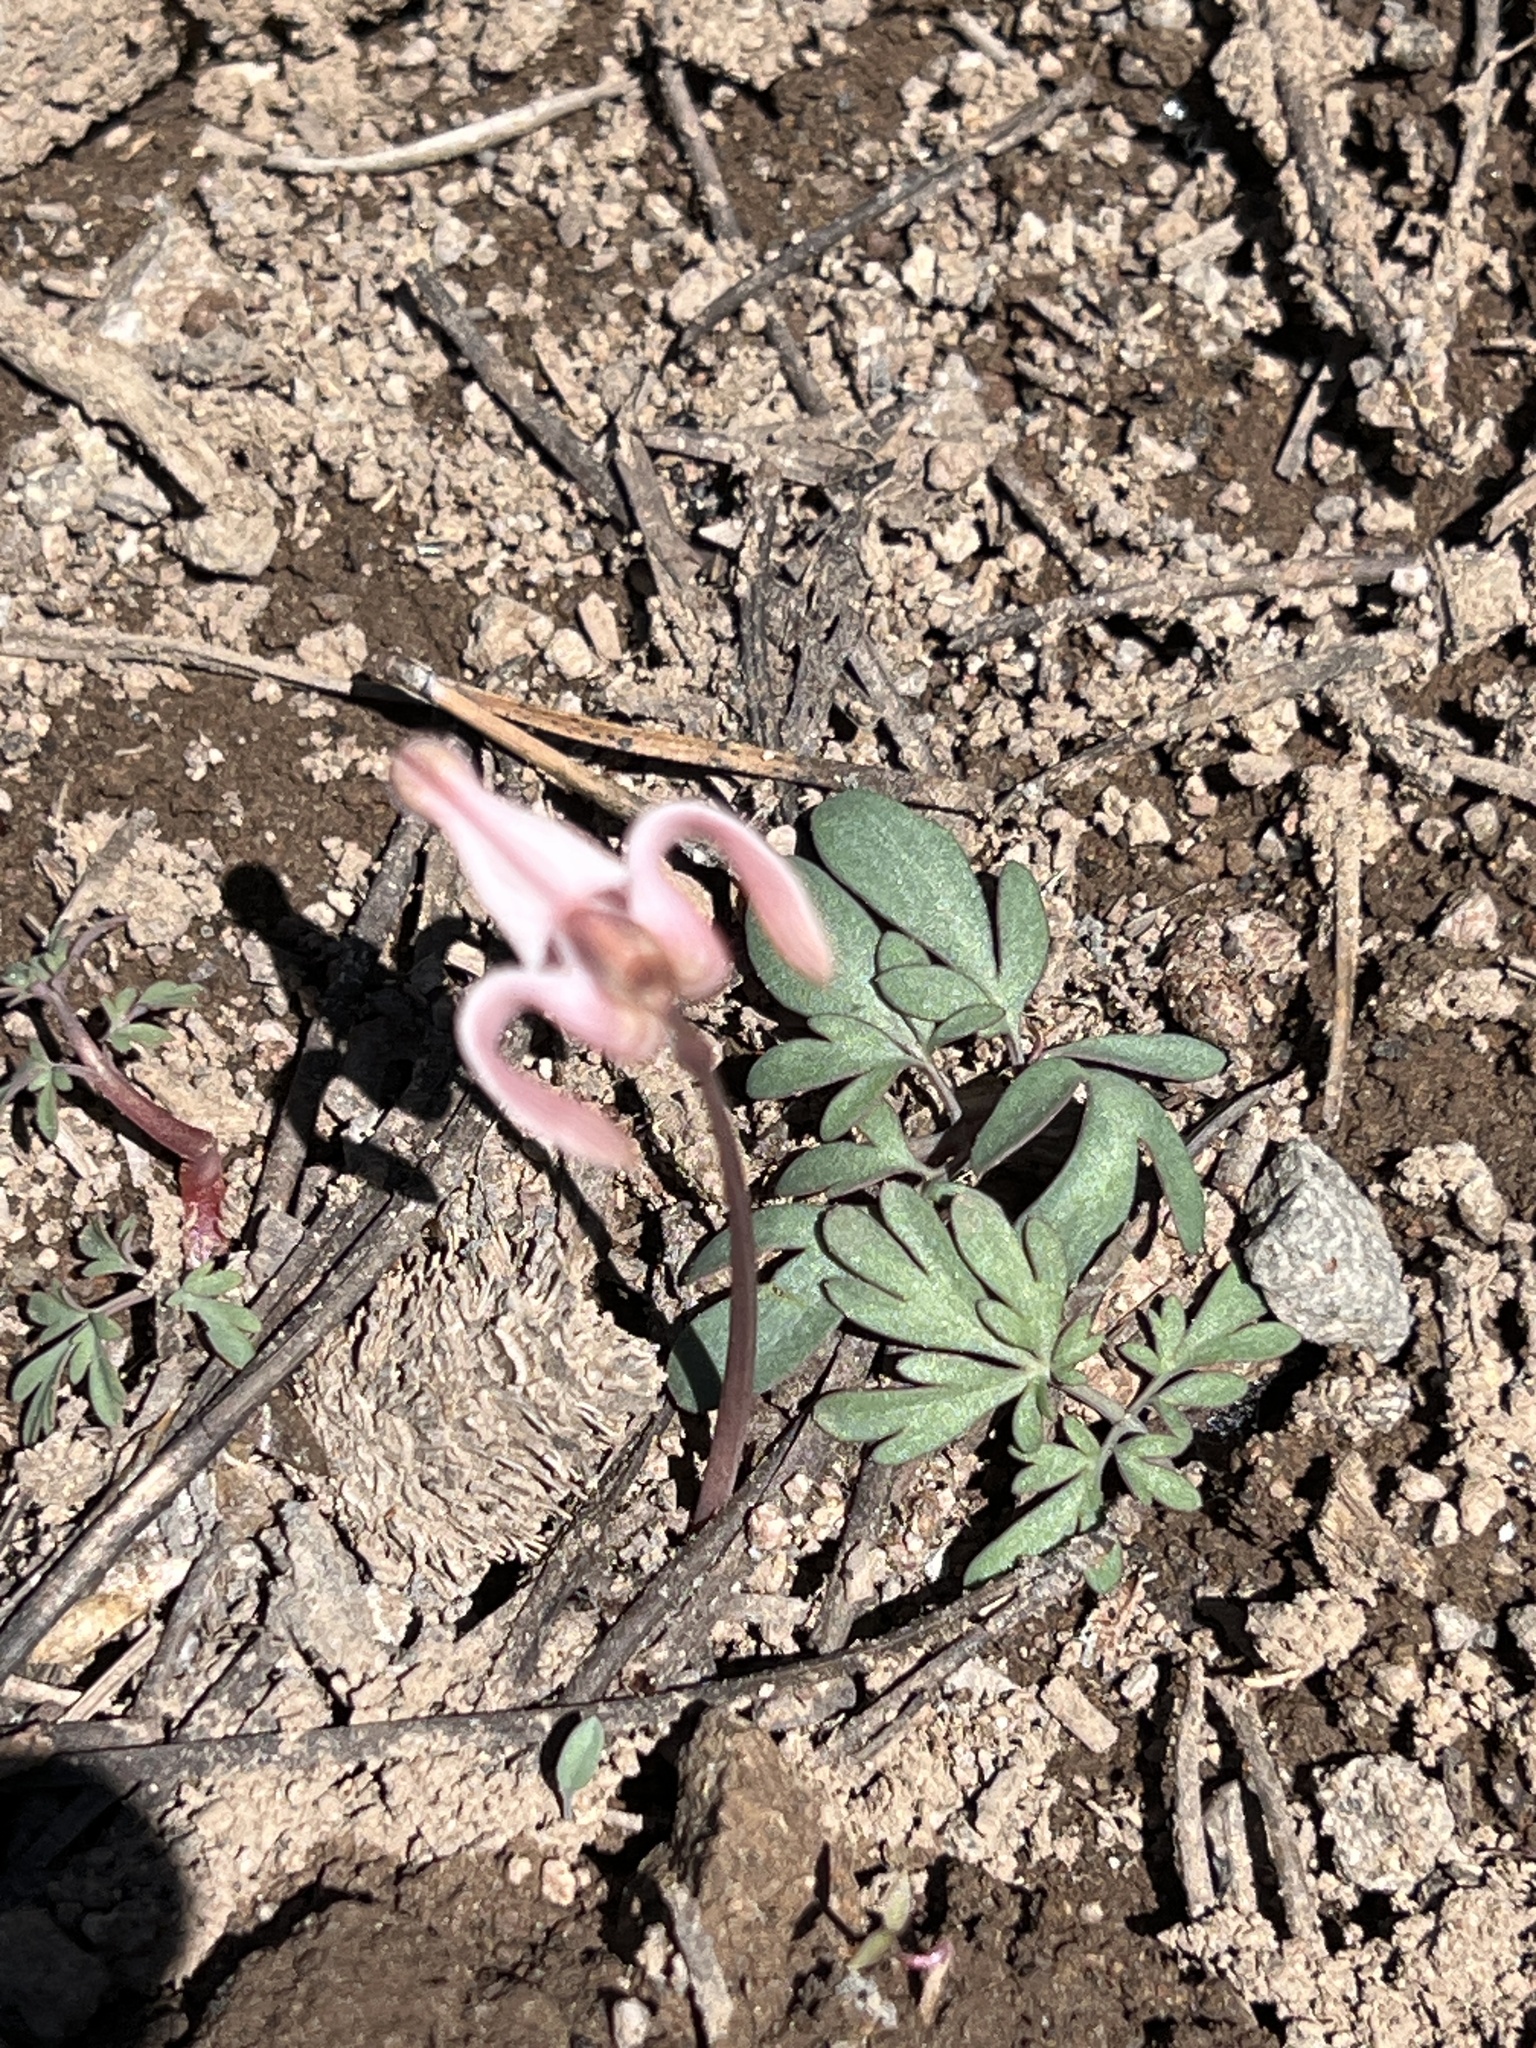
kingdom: Plantae
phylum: Tracheophyta
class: Magnoliopsida
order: Ranunculales
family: Papaveraceae
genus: Dicentra
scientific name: Dicentra uniflora
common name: Steer's-head
